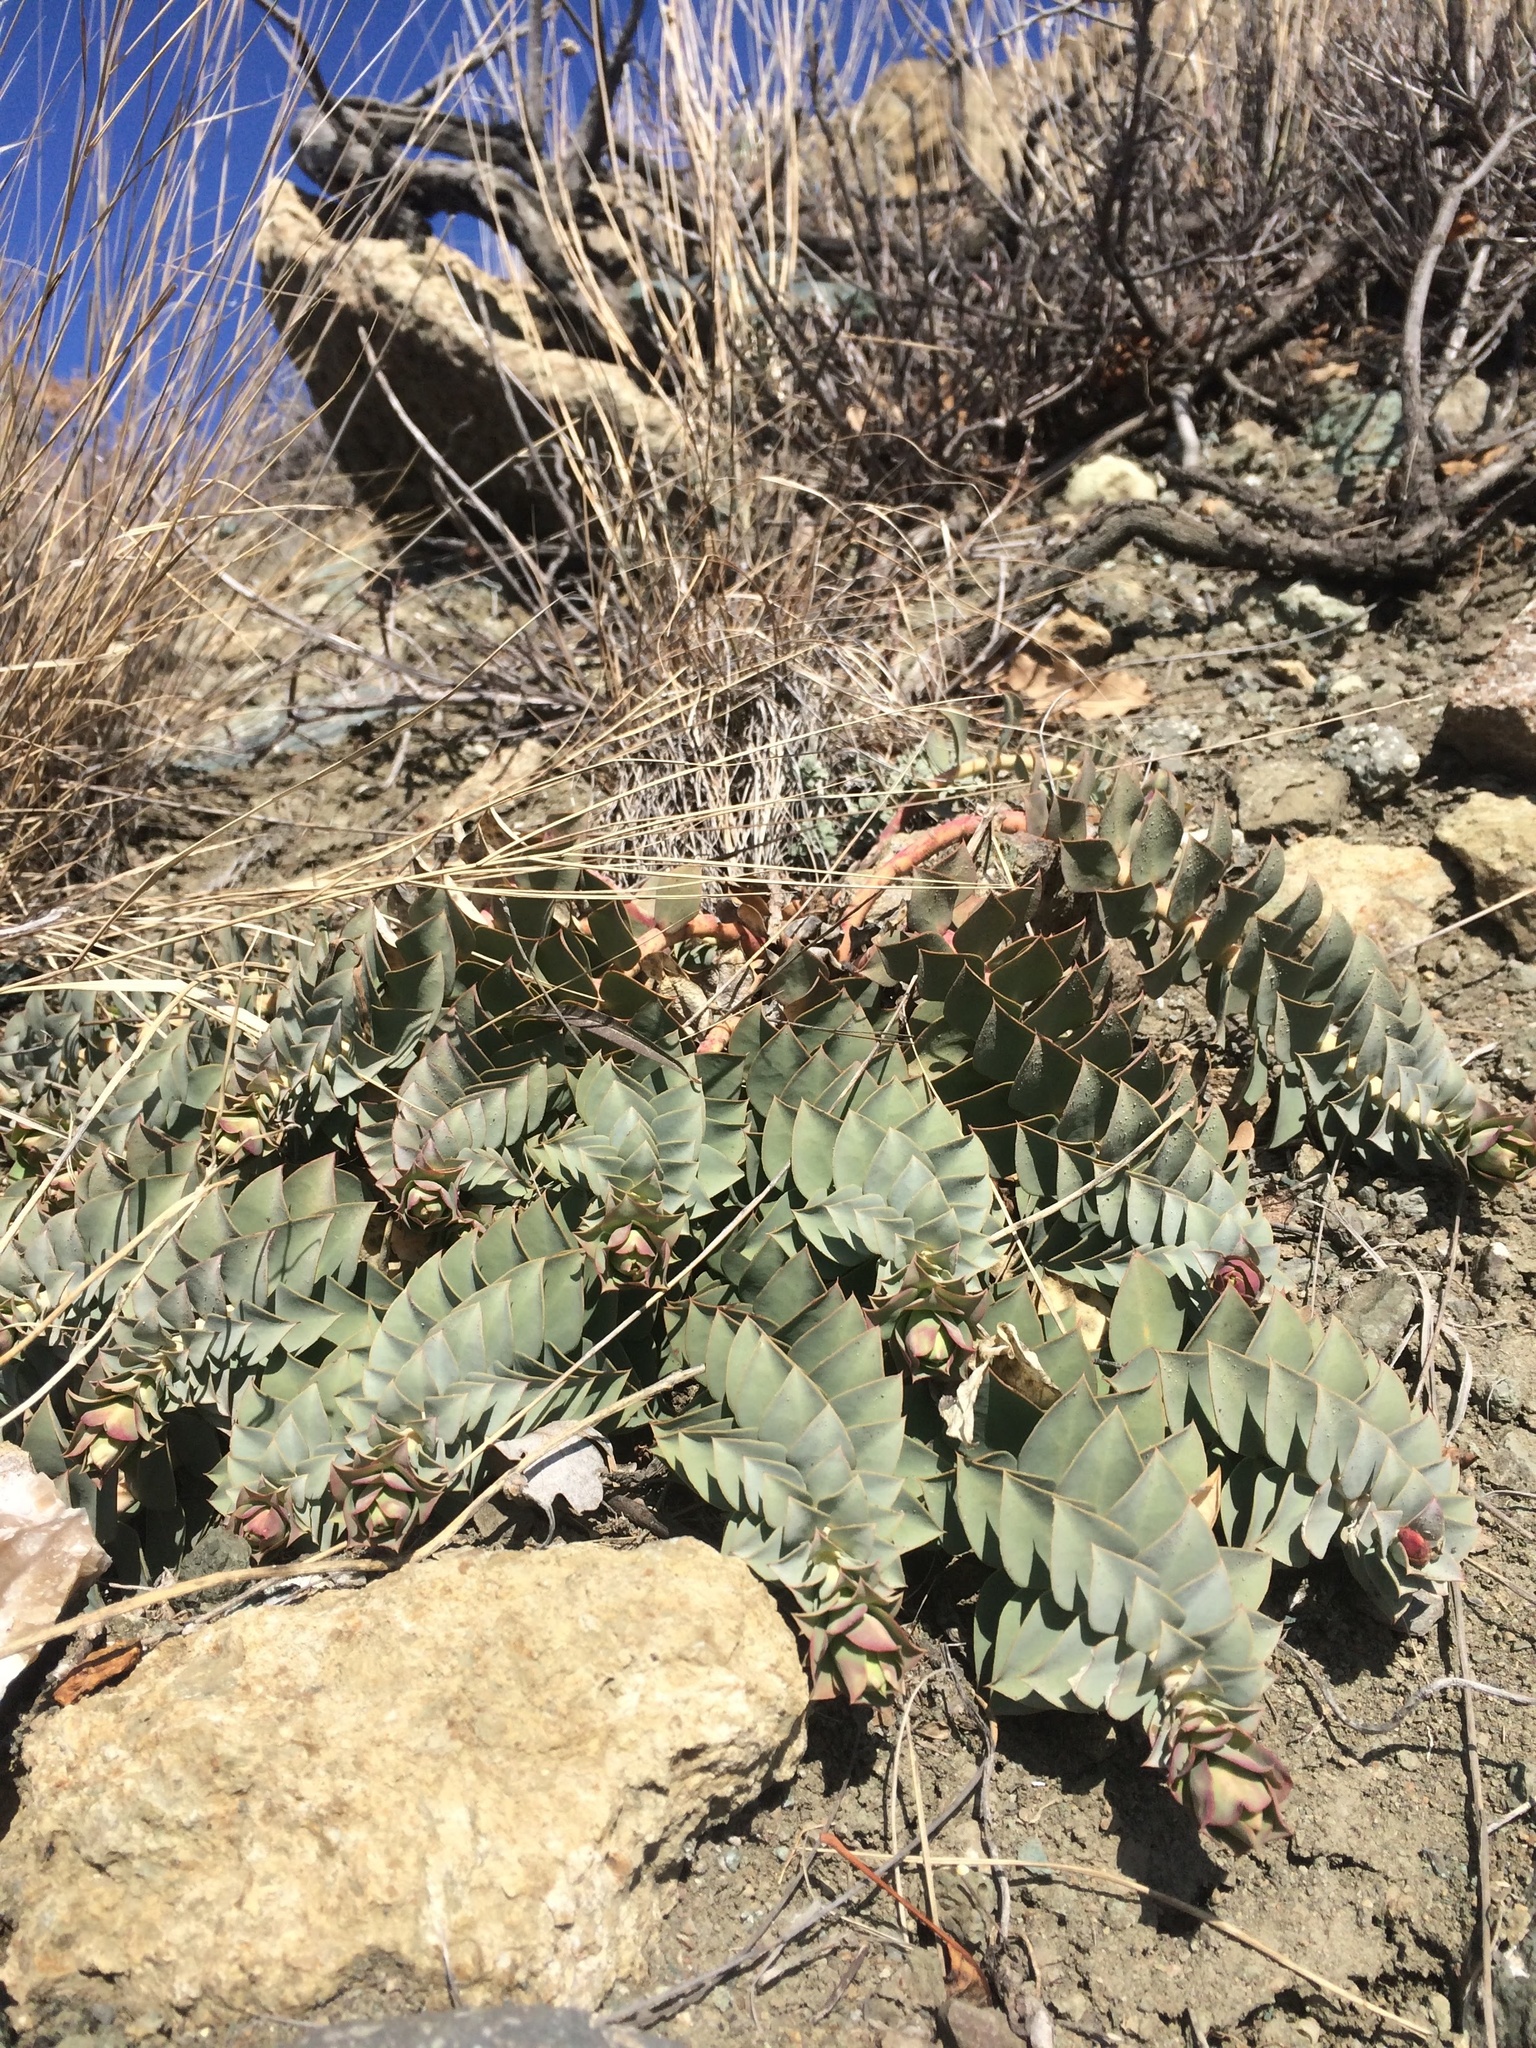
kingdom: Plantae
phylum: Tracheophyta
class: Magnoliopsida
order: Malpighiales
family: Euphorbiaceae
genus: Euphorbia
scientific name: Euphorbia myrsinites
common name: Myrtle spurge
